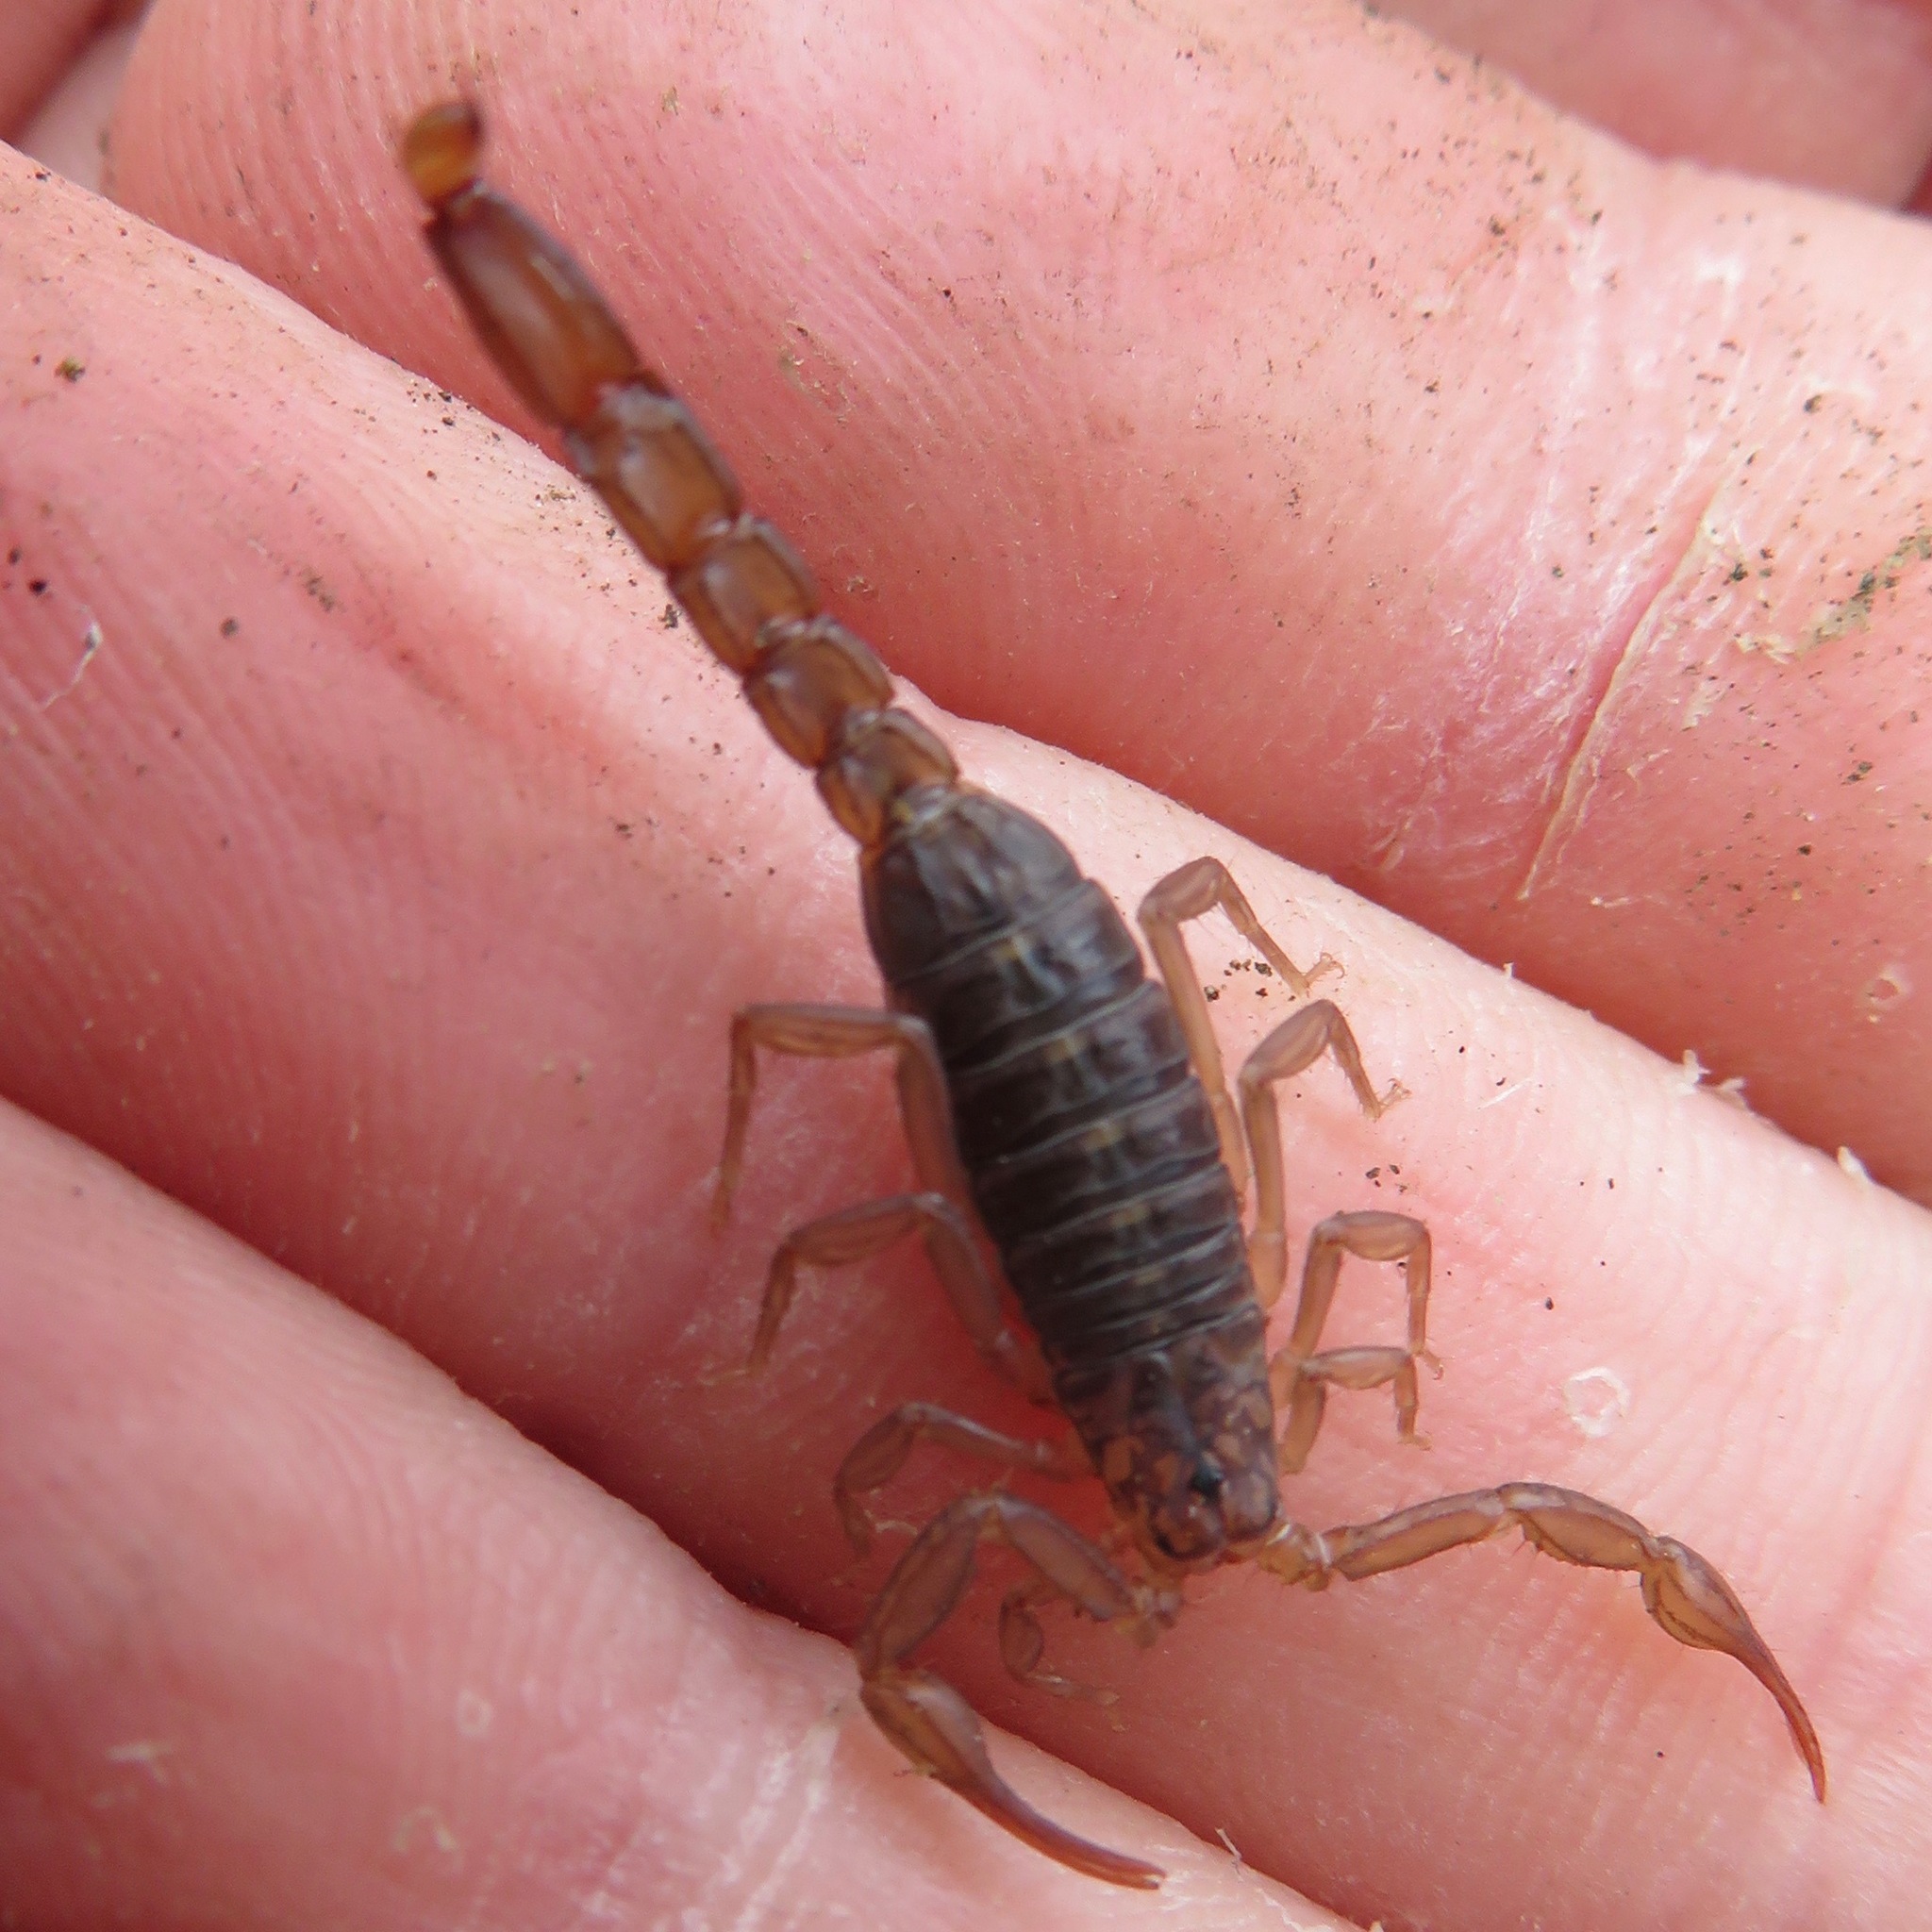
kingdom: Animalia
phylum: Arthropoda
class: Arachnida
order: Scorpiones
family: Vaejovidae
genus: Serradigitus
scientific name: Serradigitus gertschi
